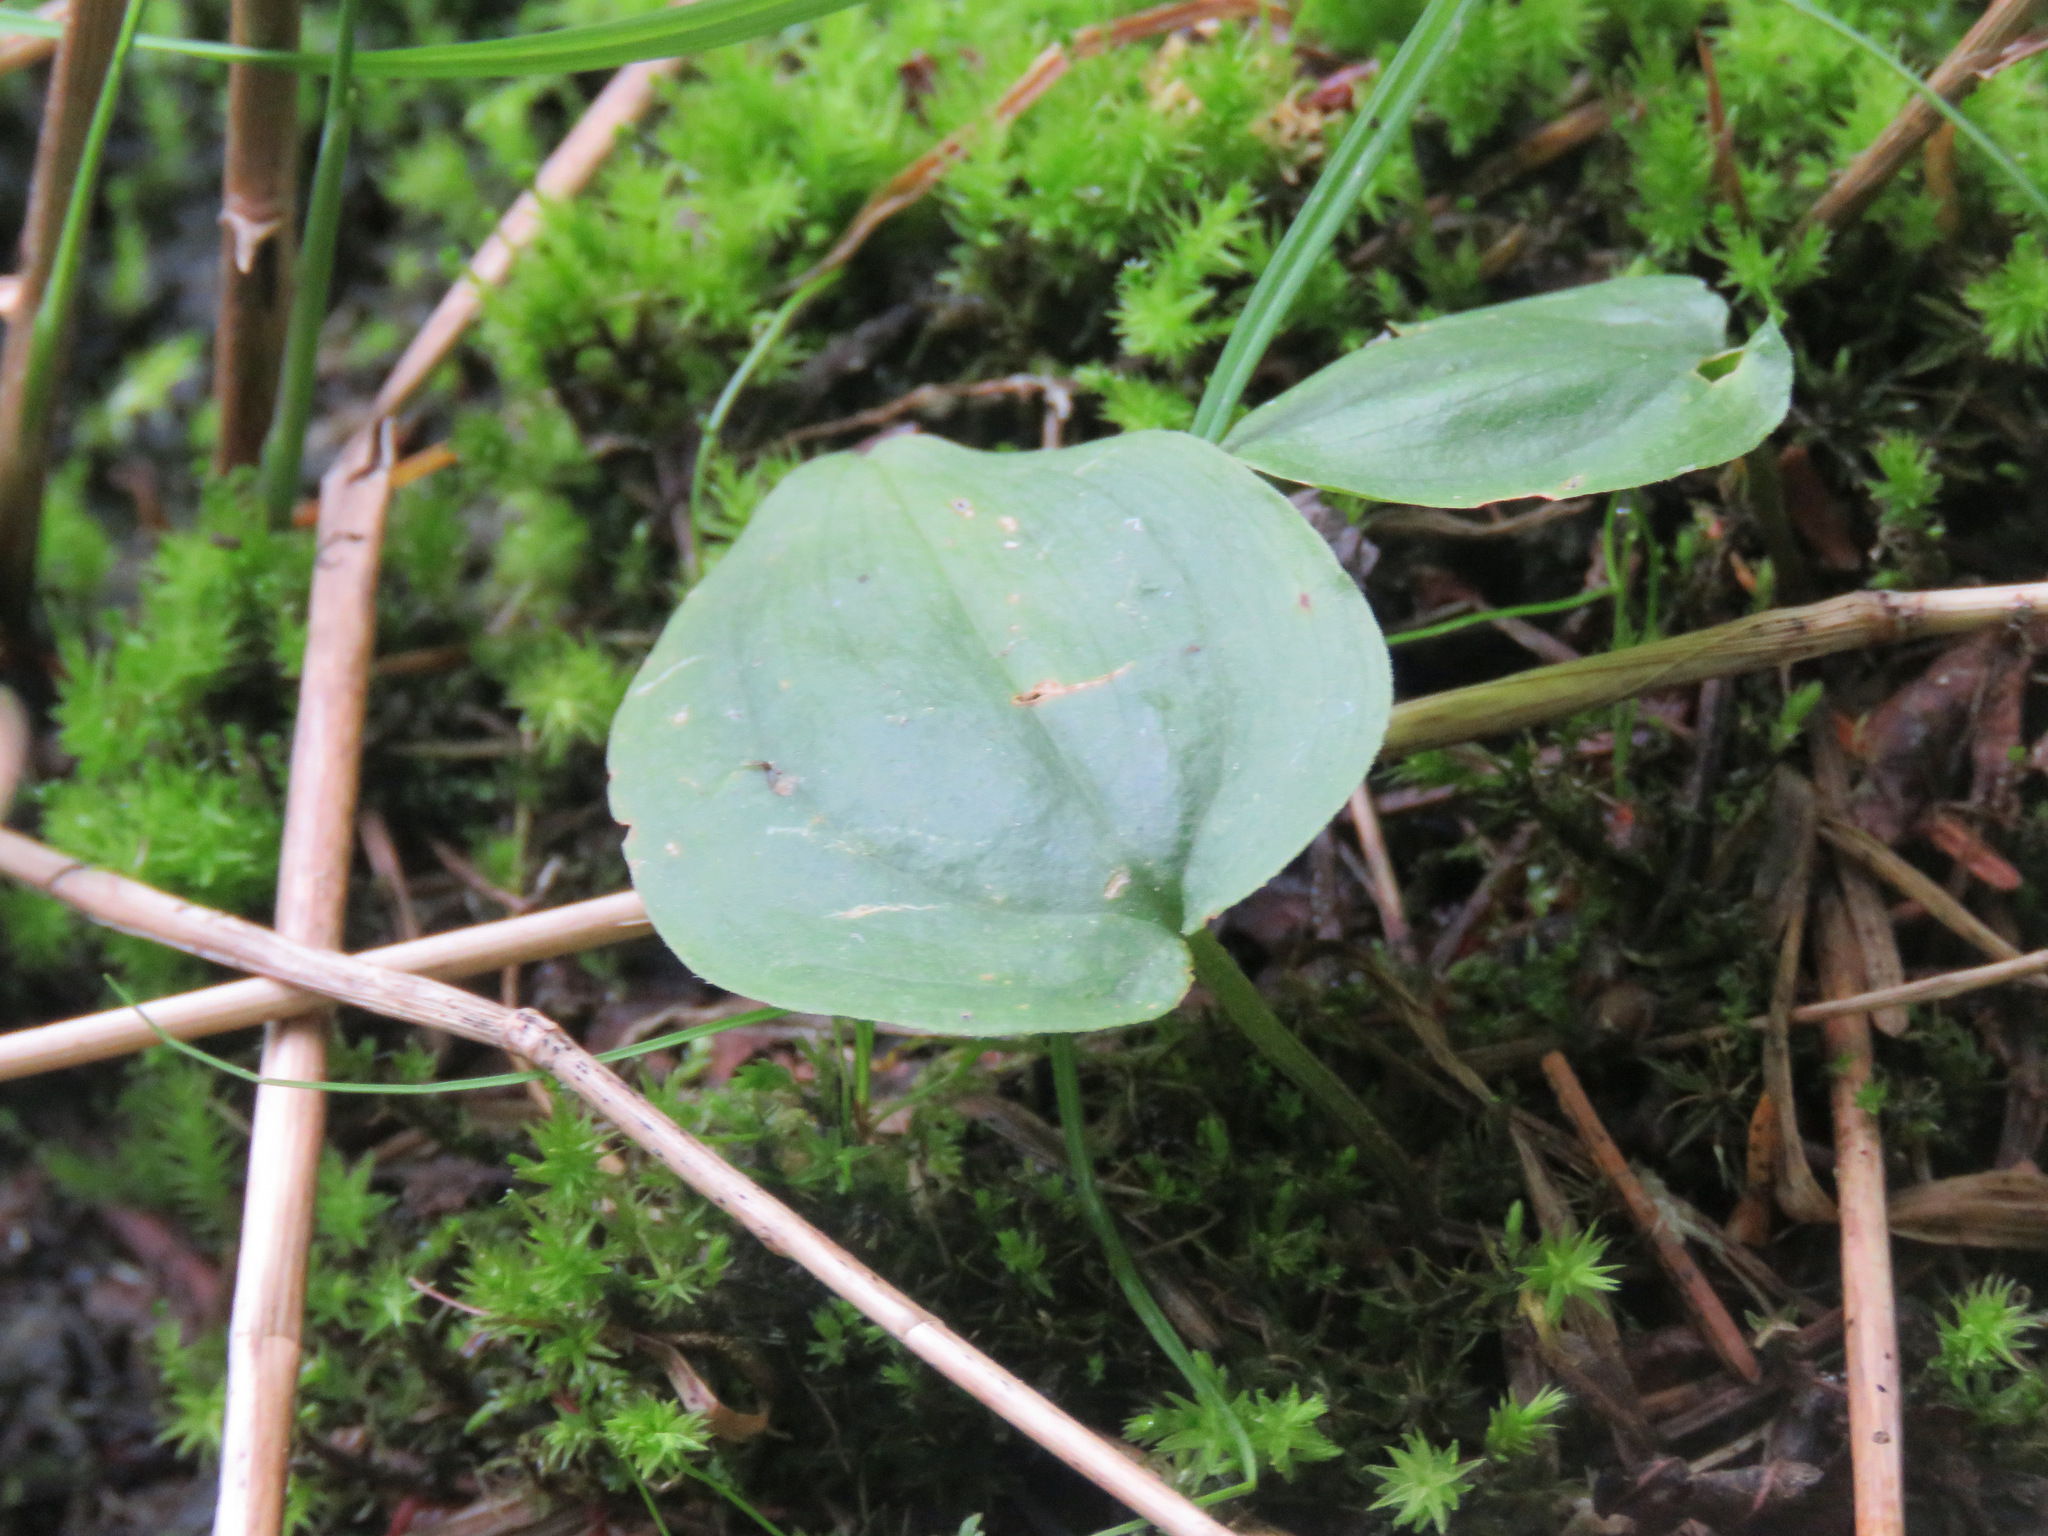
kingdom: Plantae
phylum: Tracheophyta
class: Liliopsida
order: Asparagales
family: Asparagaceae
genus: Maianthemum
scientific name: Maianthemum canadense
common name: False lily-of-the-valley
